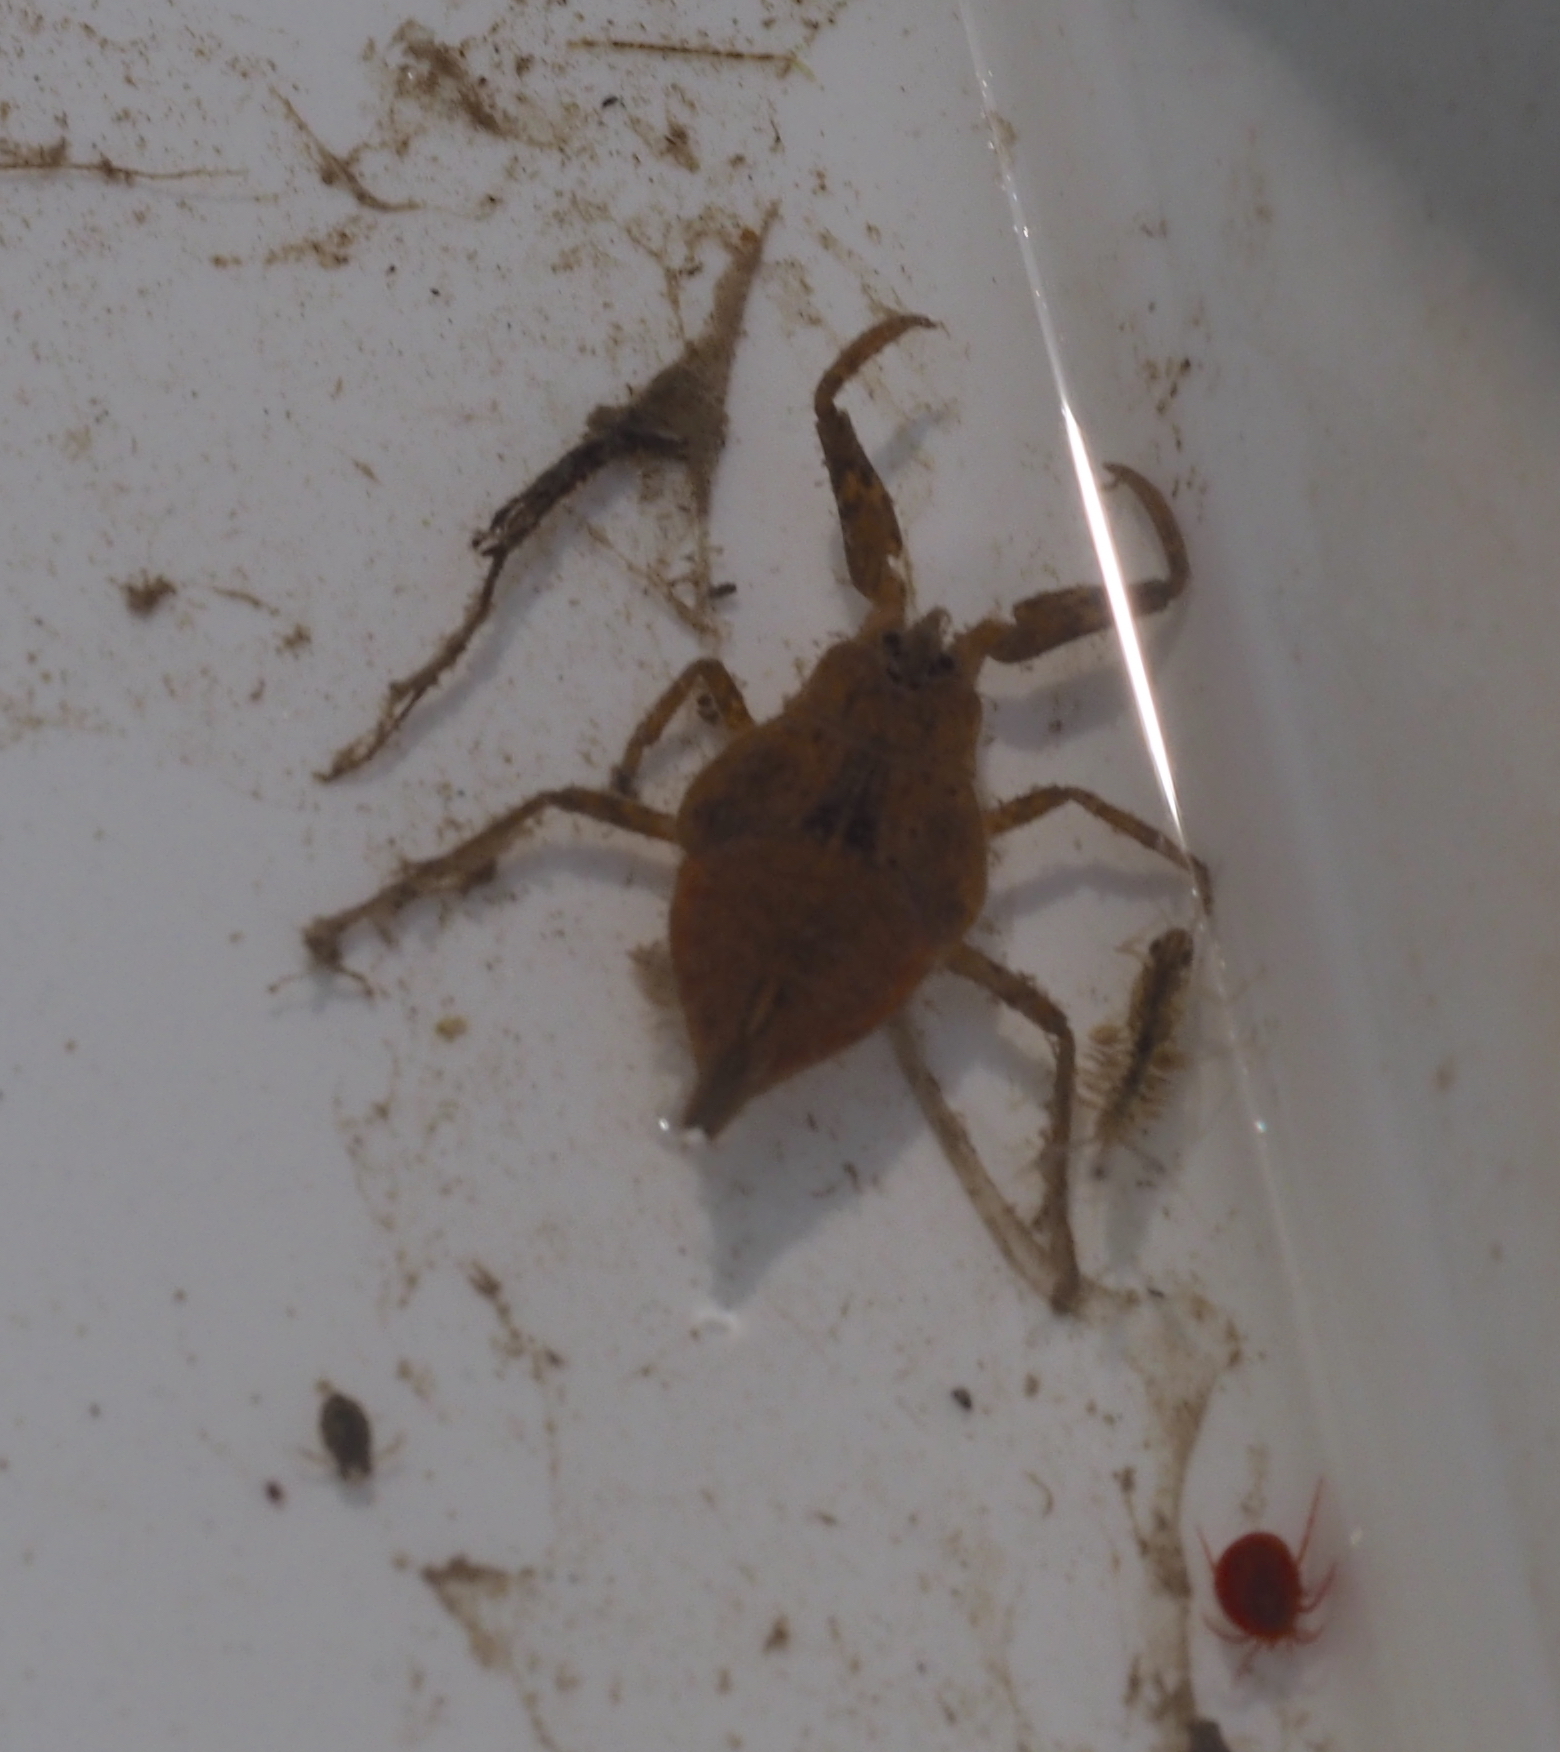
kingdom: Animalia
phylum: Arthropoda
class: Insecta
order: Hemiptera
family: Nepidae
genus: Nepa
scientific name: Nepa cinerea
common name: Water scorpion
